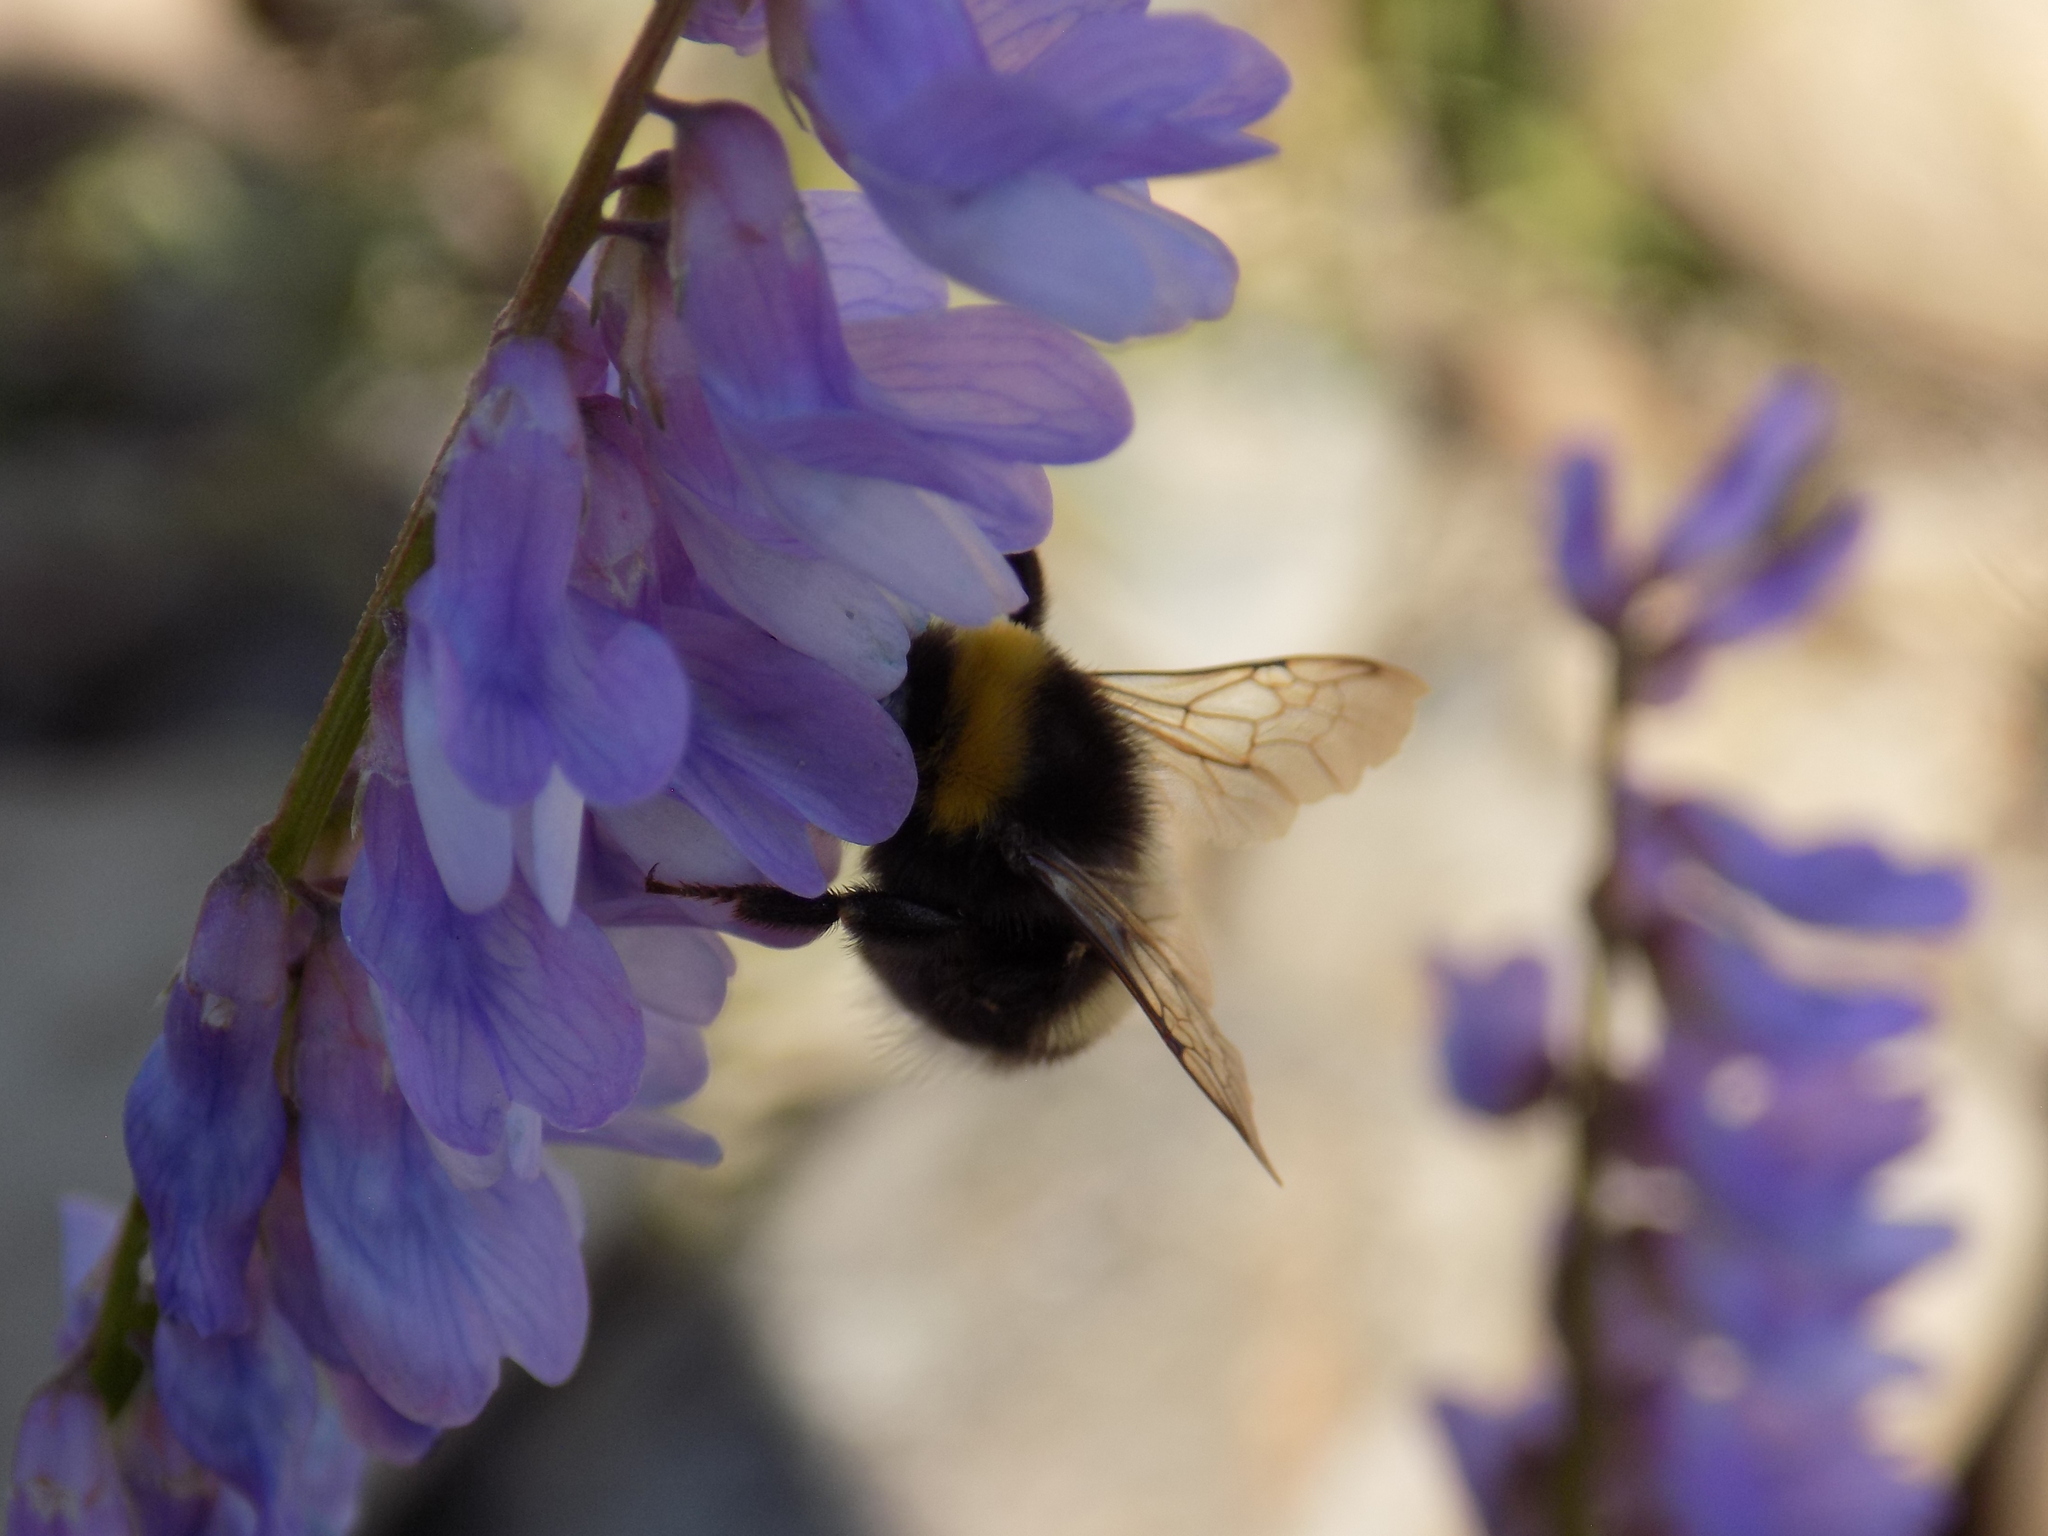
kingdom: Animalia
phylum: Arthropoda
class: Insecta
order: Hymenoptera
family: Apidae
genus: Bombus
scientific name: Bombus
